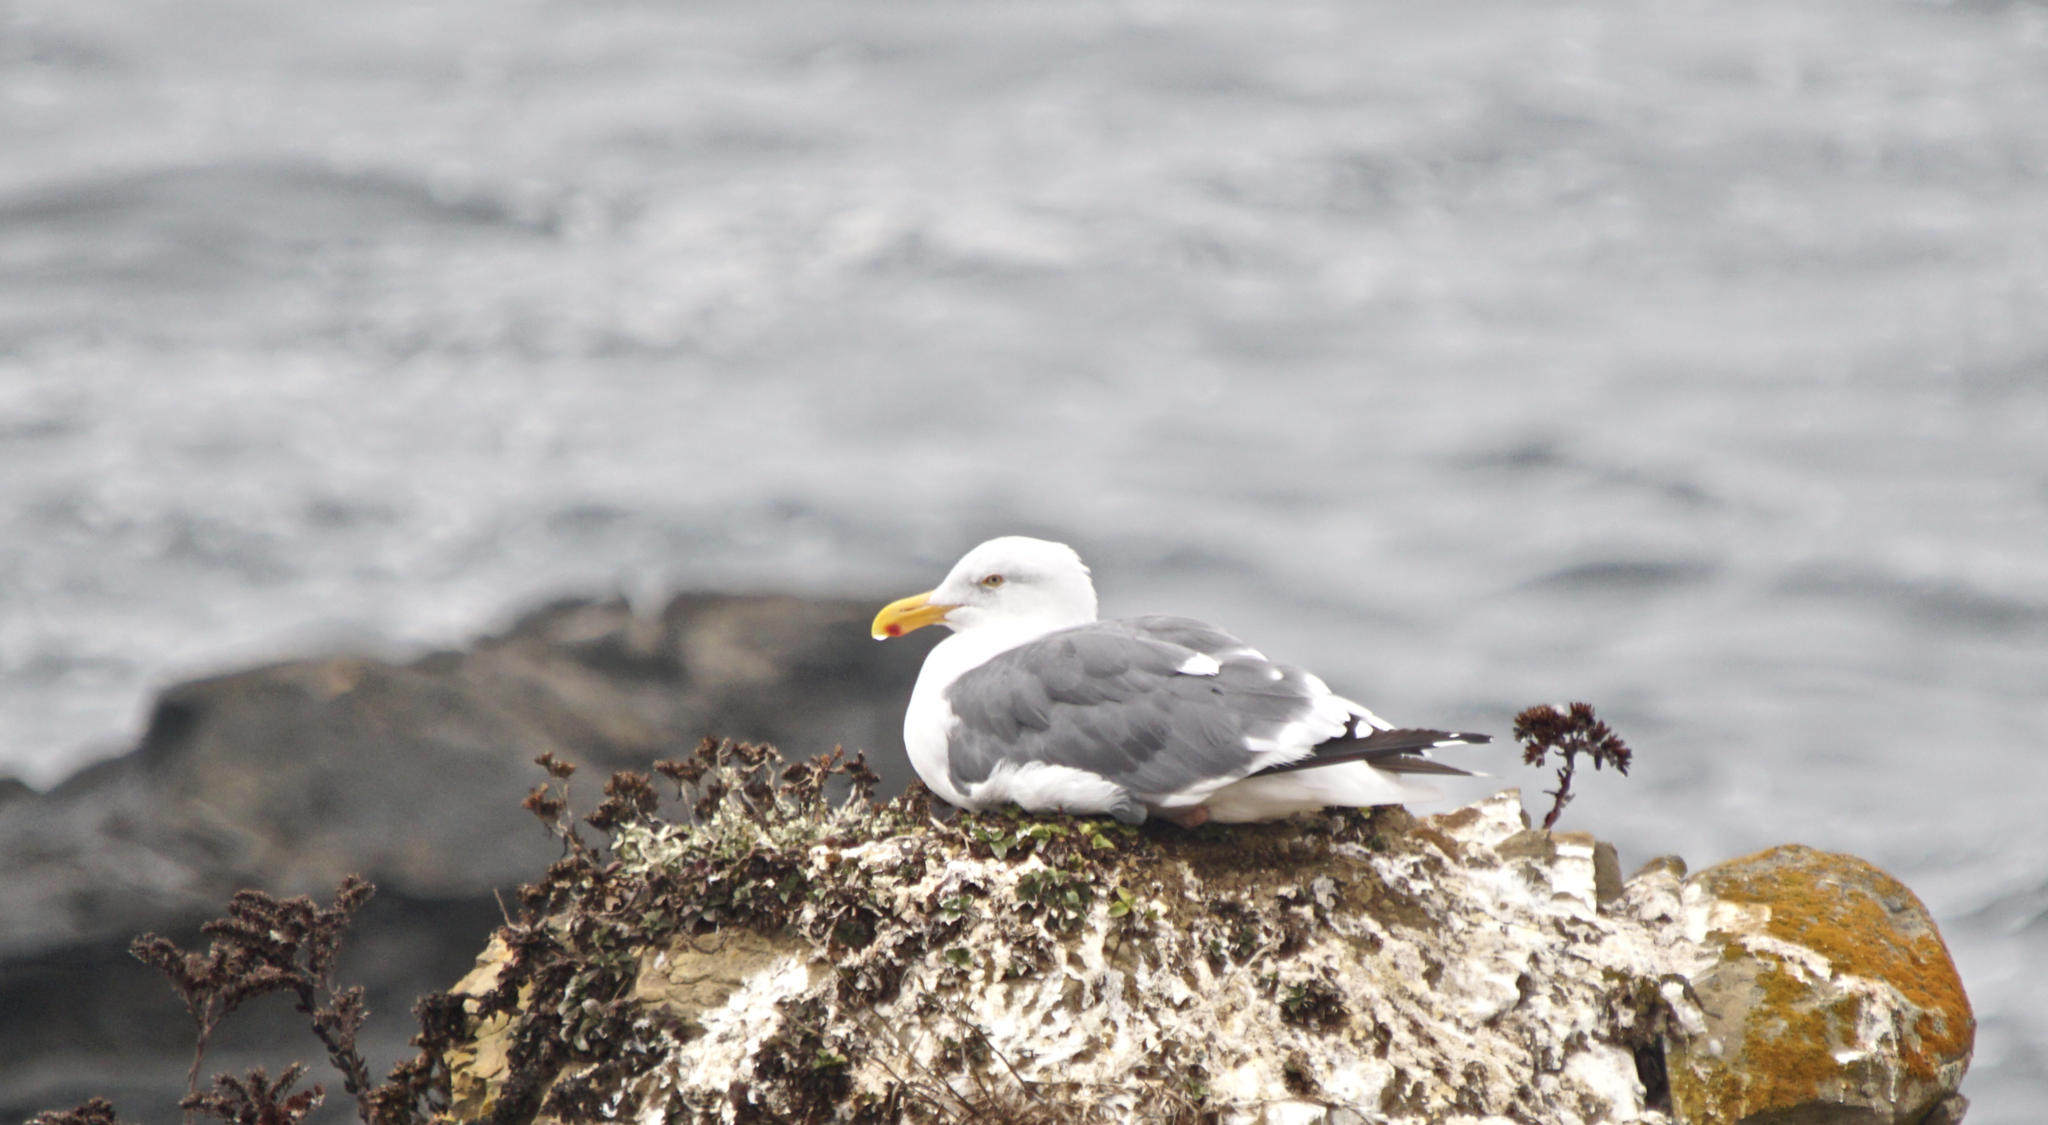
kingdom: Animalia
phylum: Chordata
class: Aves
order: Charadriiformes
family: Laridae
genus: Larus
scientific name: Larus occidentalis
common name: Western gull
